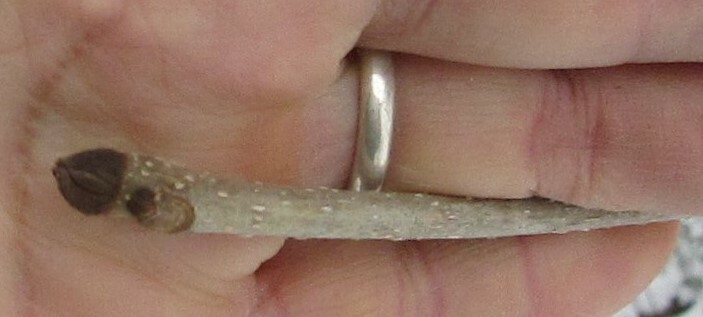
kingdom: Plantae
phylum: Tracheophyta
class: Magnoliopsida
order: Lamiales
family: Oleaceae
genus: Fraxinus
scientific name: Fraxinus nigra
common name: Black ash
